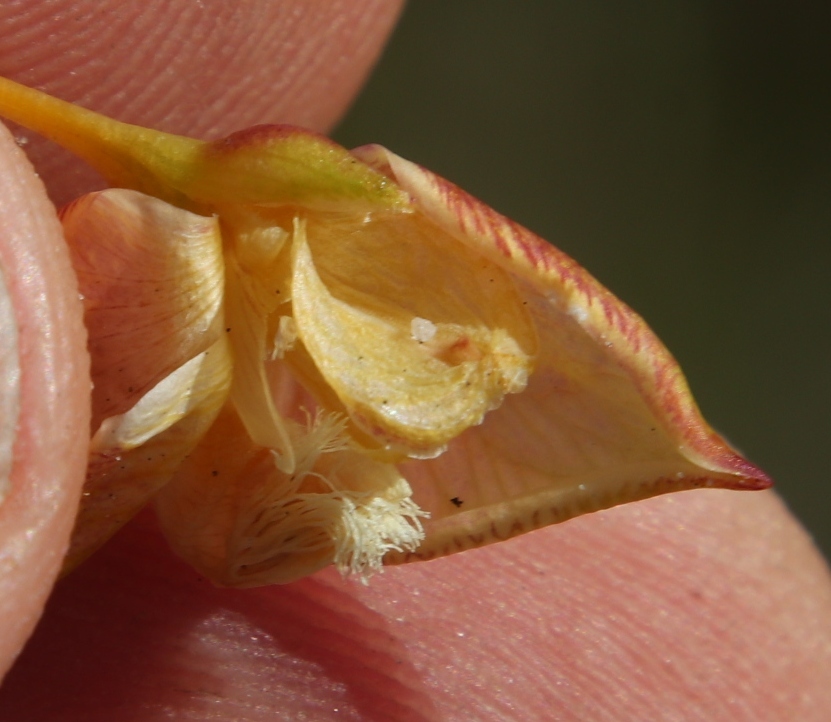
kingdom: Plantae
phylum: Tracheophyta
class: Magnoliopsida
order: Fabales
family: Polygalaceae
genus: Polygala
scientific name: Polygala bracteolata
